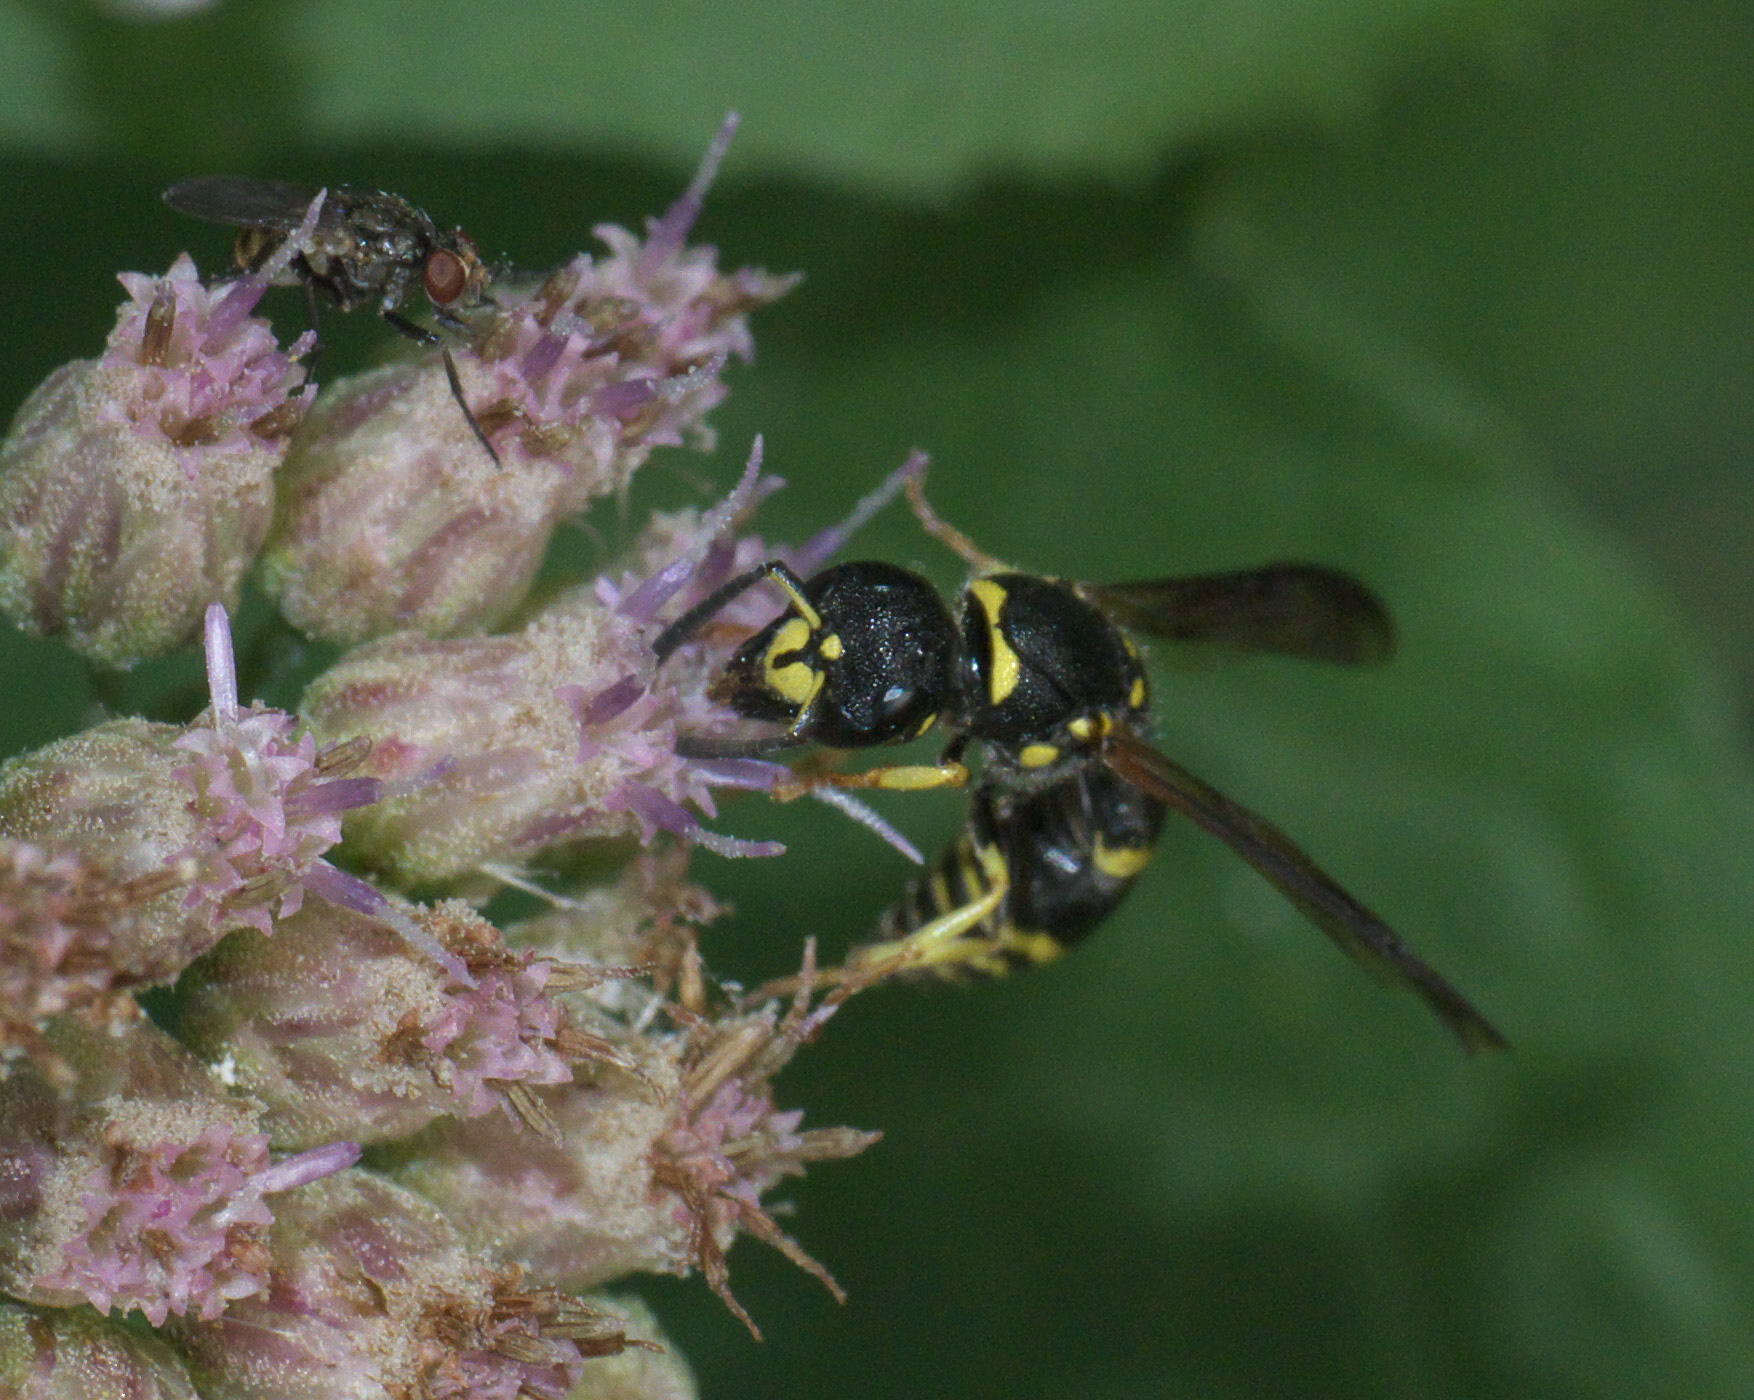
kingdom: Animalia
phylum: Arthropoda
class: Insecta
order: Hymenoptera
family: Vespidae
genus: Ancistrocerus
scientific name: Ancistrocerus adiabatus
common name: Bramble mason wasp
